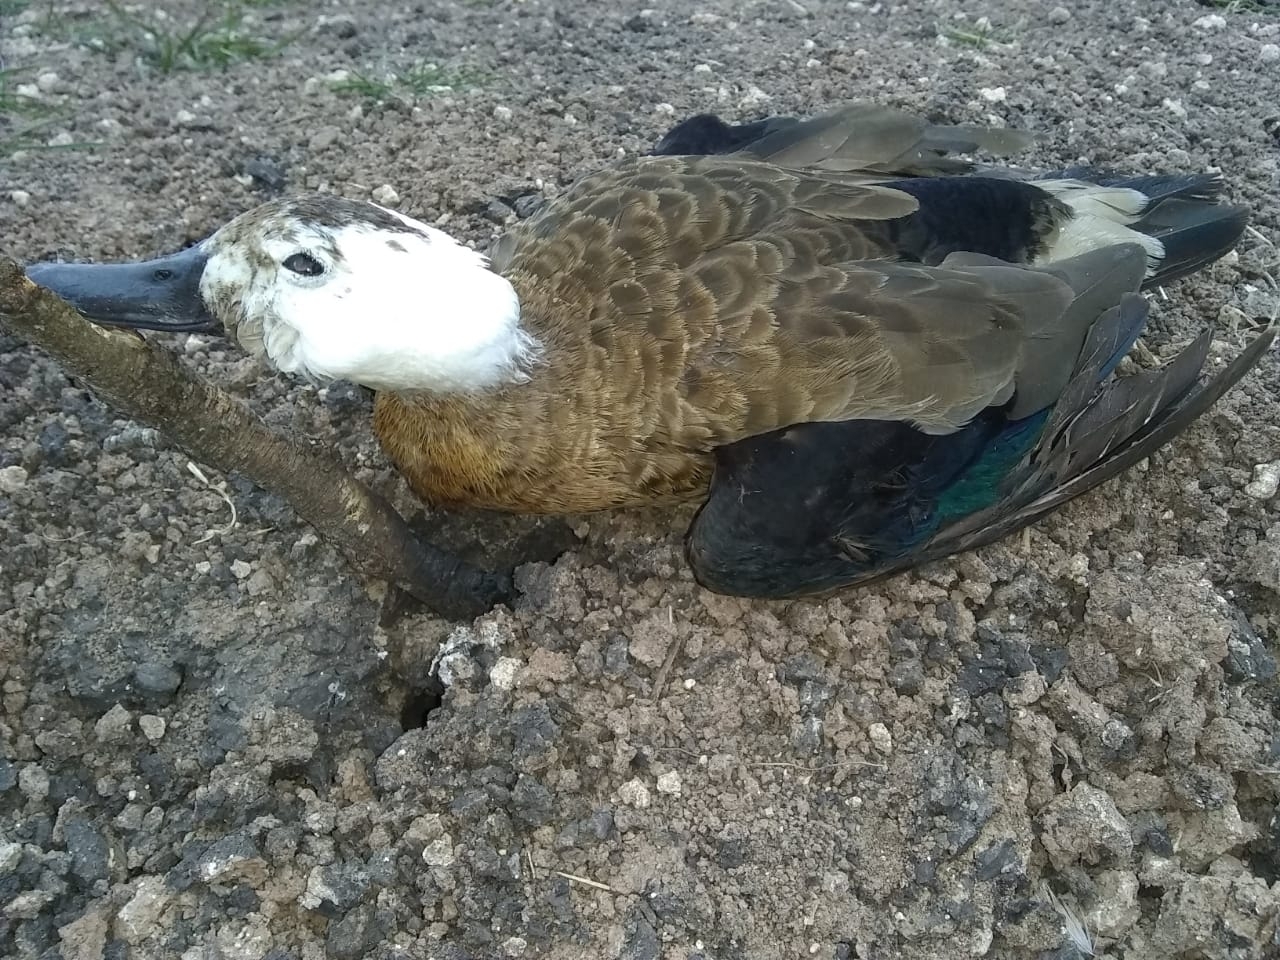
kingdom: Animalia
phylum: Chordata
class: Aves
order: Anseriformes
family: Anatidae
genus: Amazonetta
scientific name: Amazonetta brasiliensis
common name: Brazilian teal
